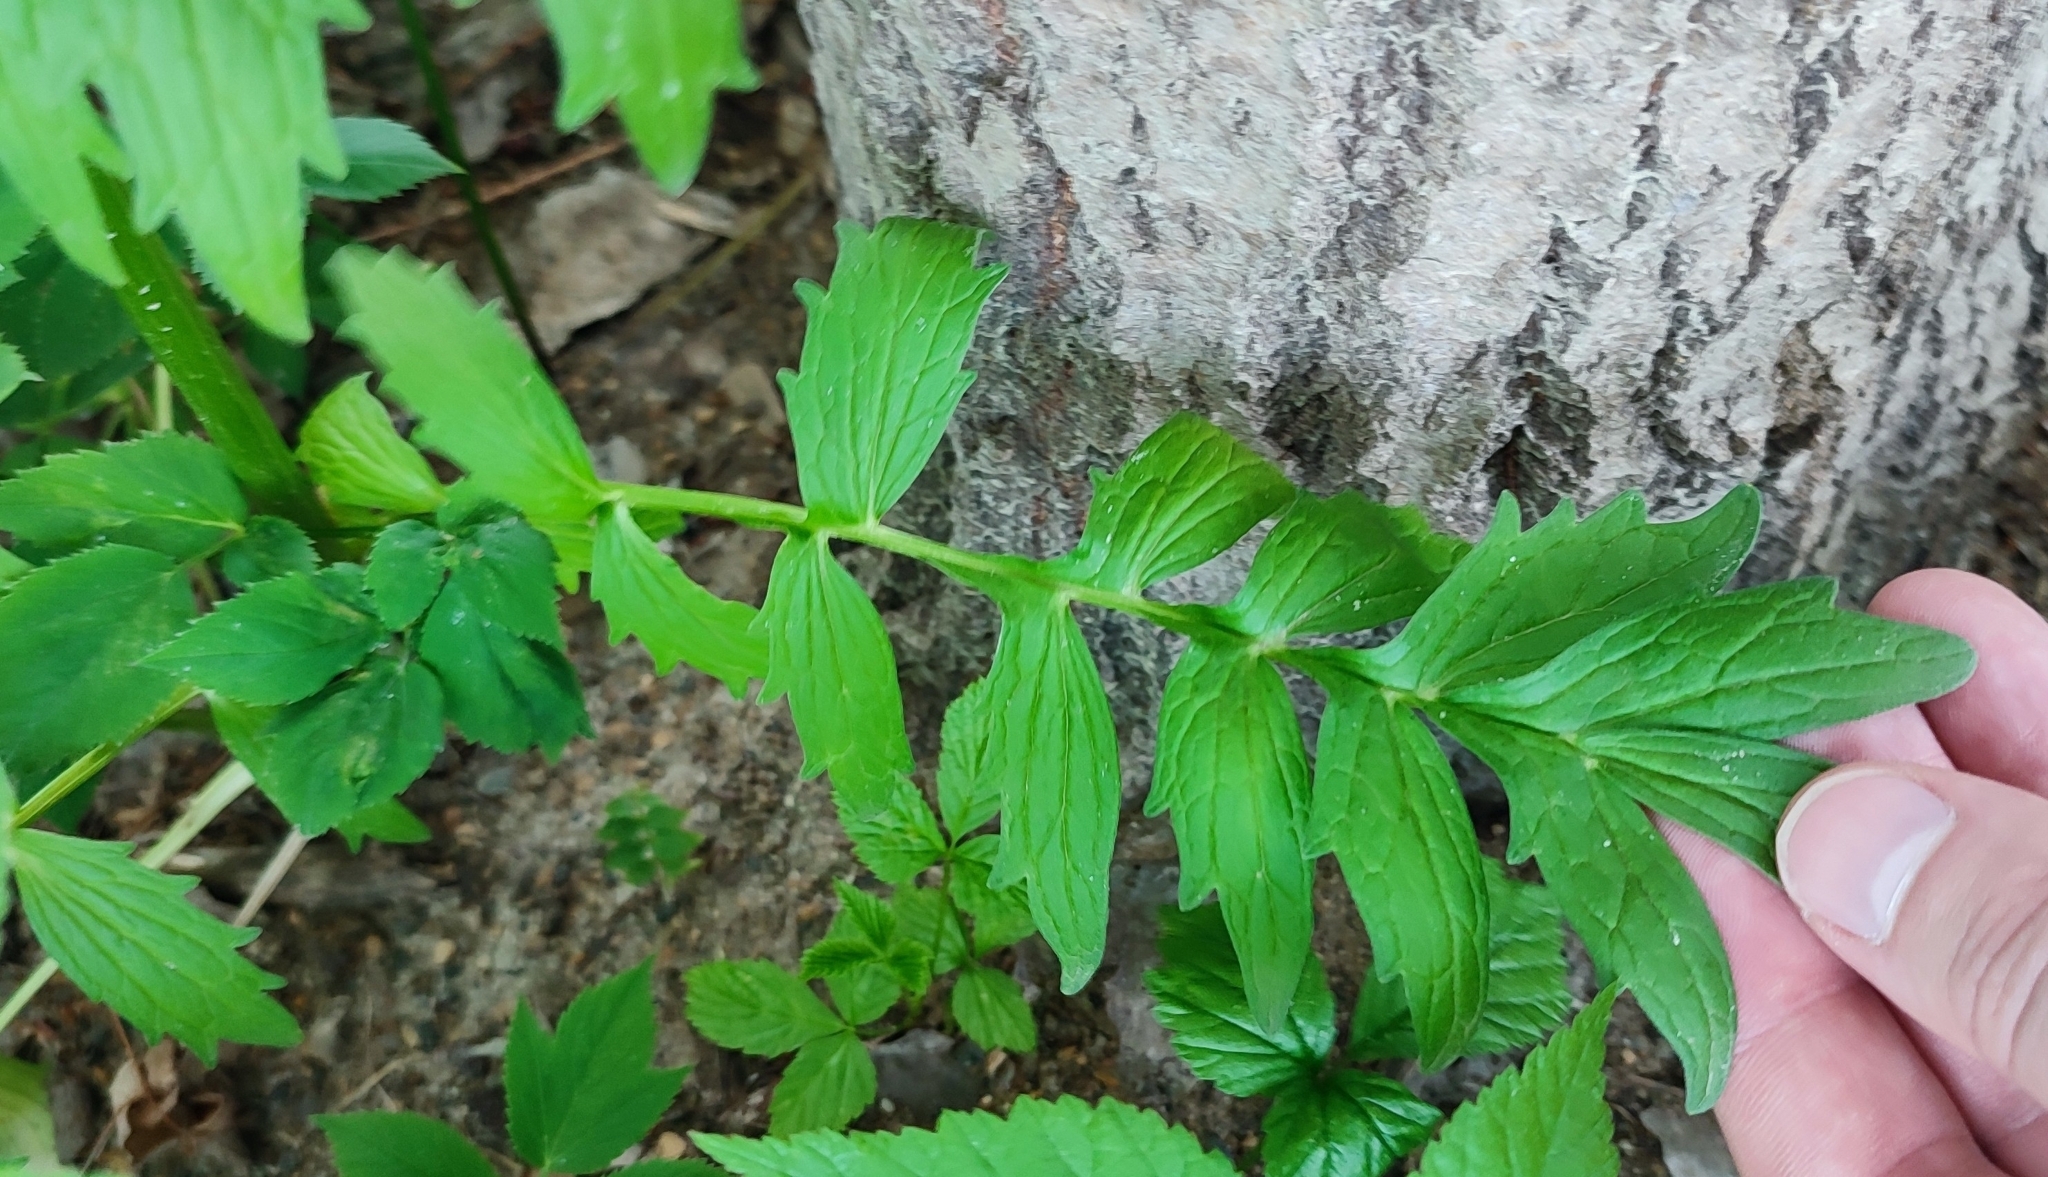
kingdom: Plantae
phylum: Tracheophyta
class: Magnoliopsida
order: Dipsacales
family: Caprifoliaceae
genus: Valeriana
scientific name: Valeriana wolgensis
